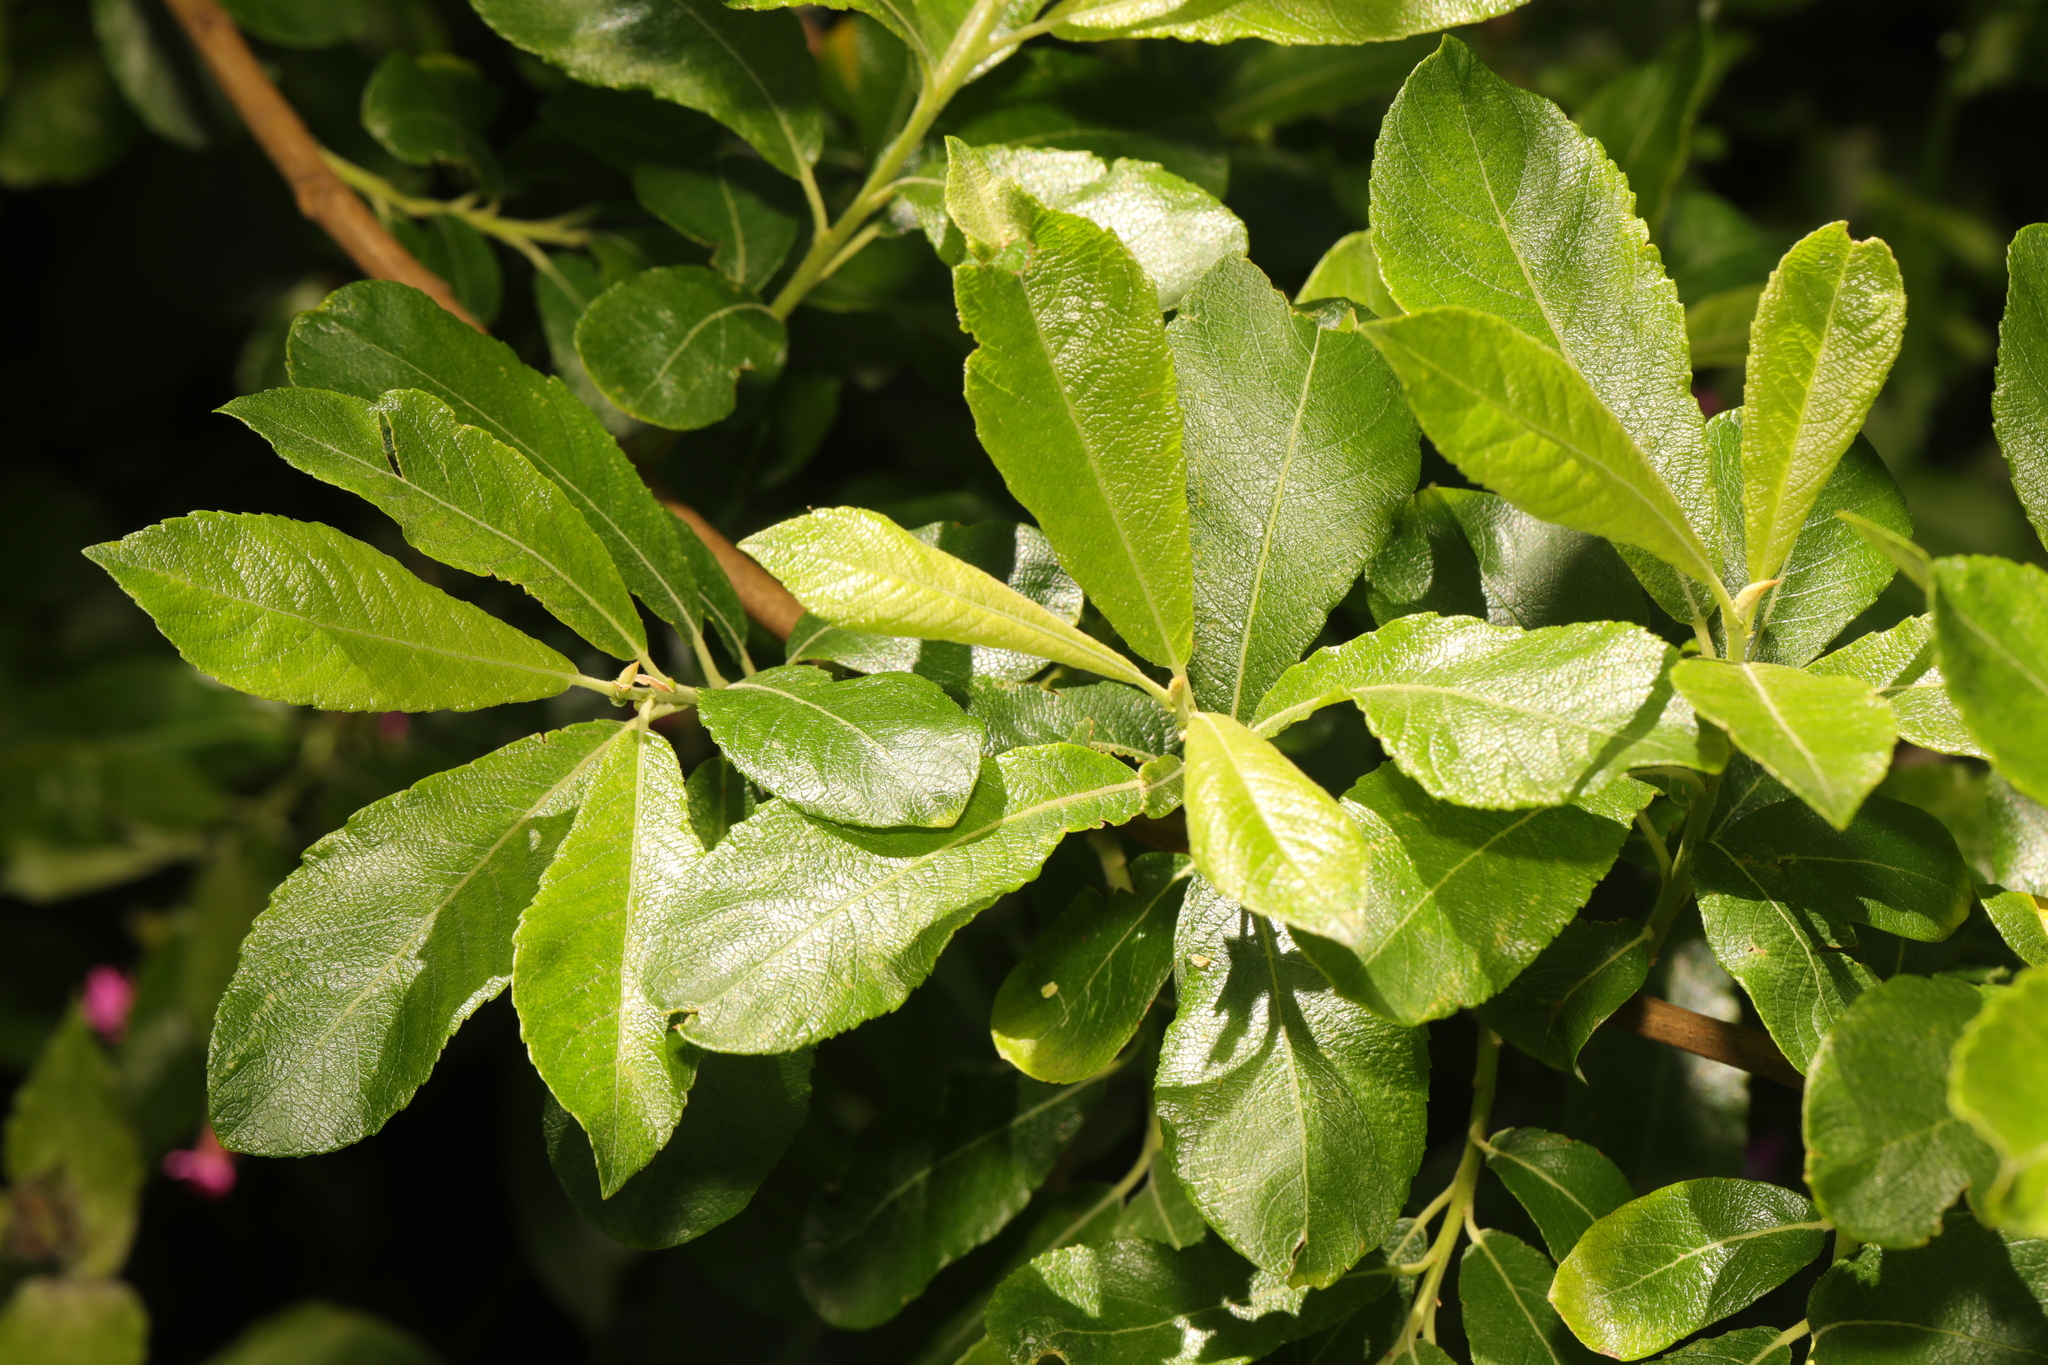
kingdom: Plantae
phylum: Tracheophyta
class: Magnoliopsida
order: Malpighiales
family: Salicaceae
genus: Salix
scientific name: Salix atrocinerea
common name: Rusty willow
